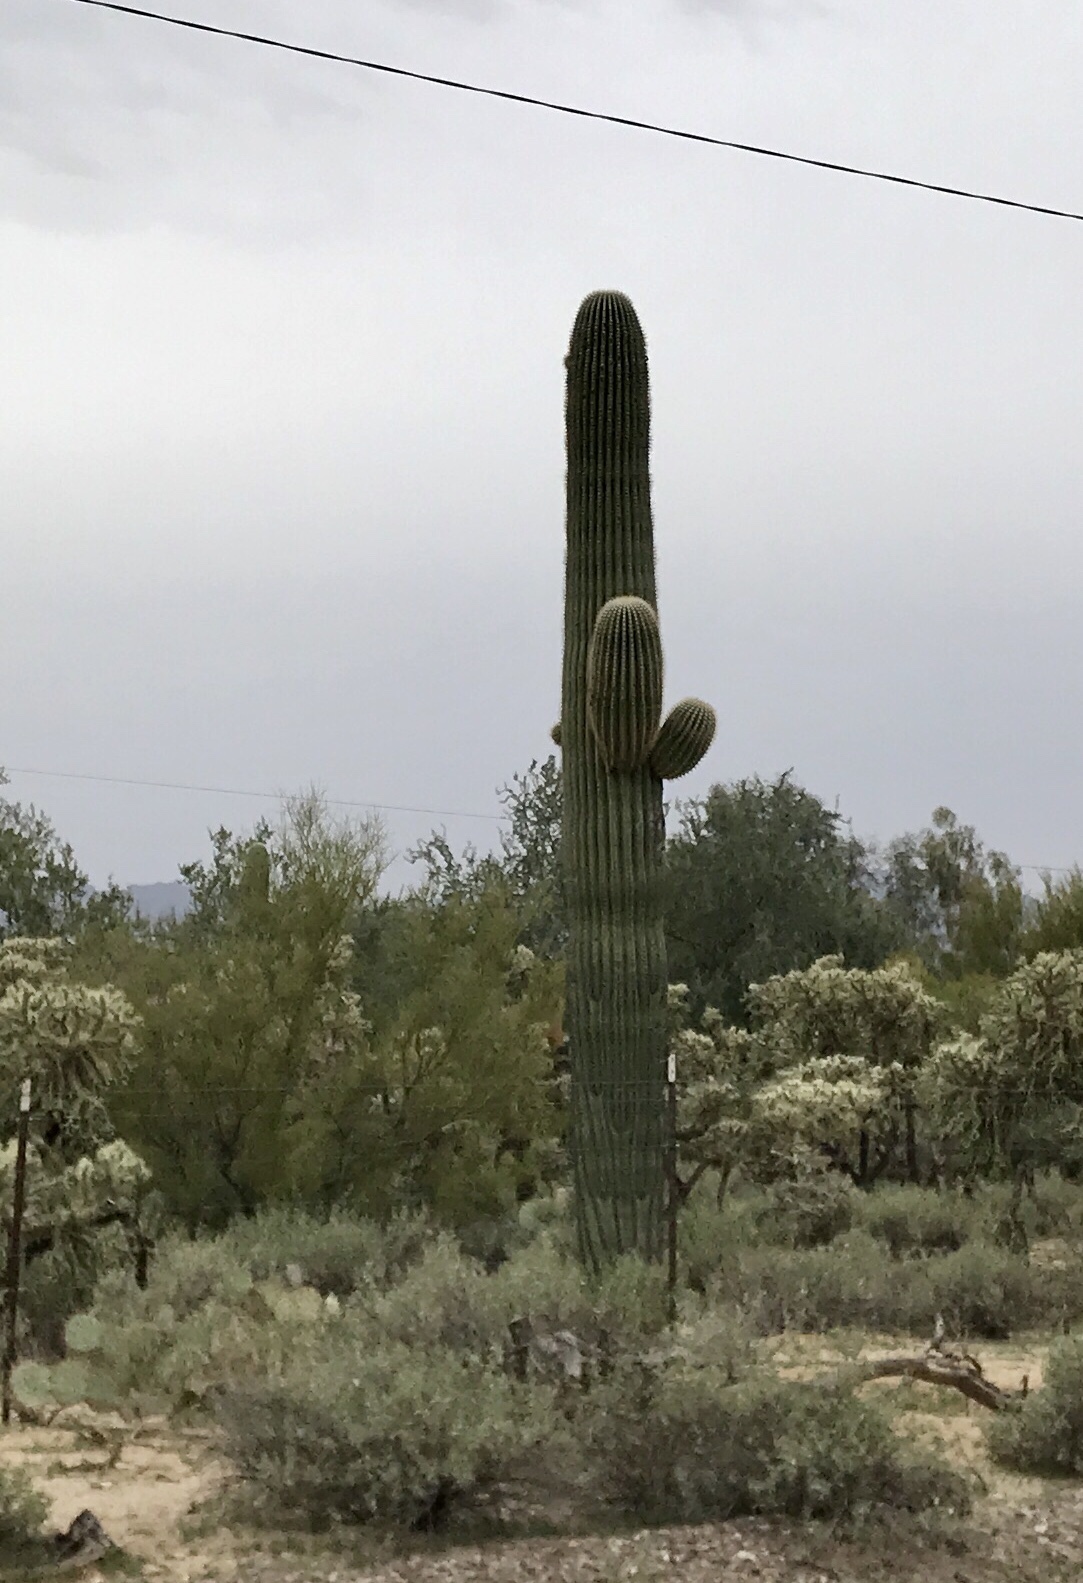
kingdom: Plantae
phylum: Tracheophyta
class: Magnoliopsida
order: Caryophyllales
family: Cactaceae
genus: Carnegiea
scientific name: Carnegiea gigantea
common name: Saguaro
